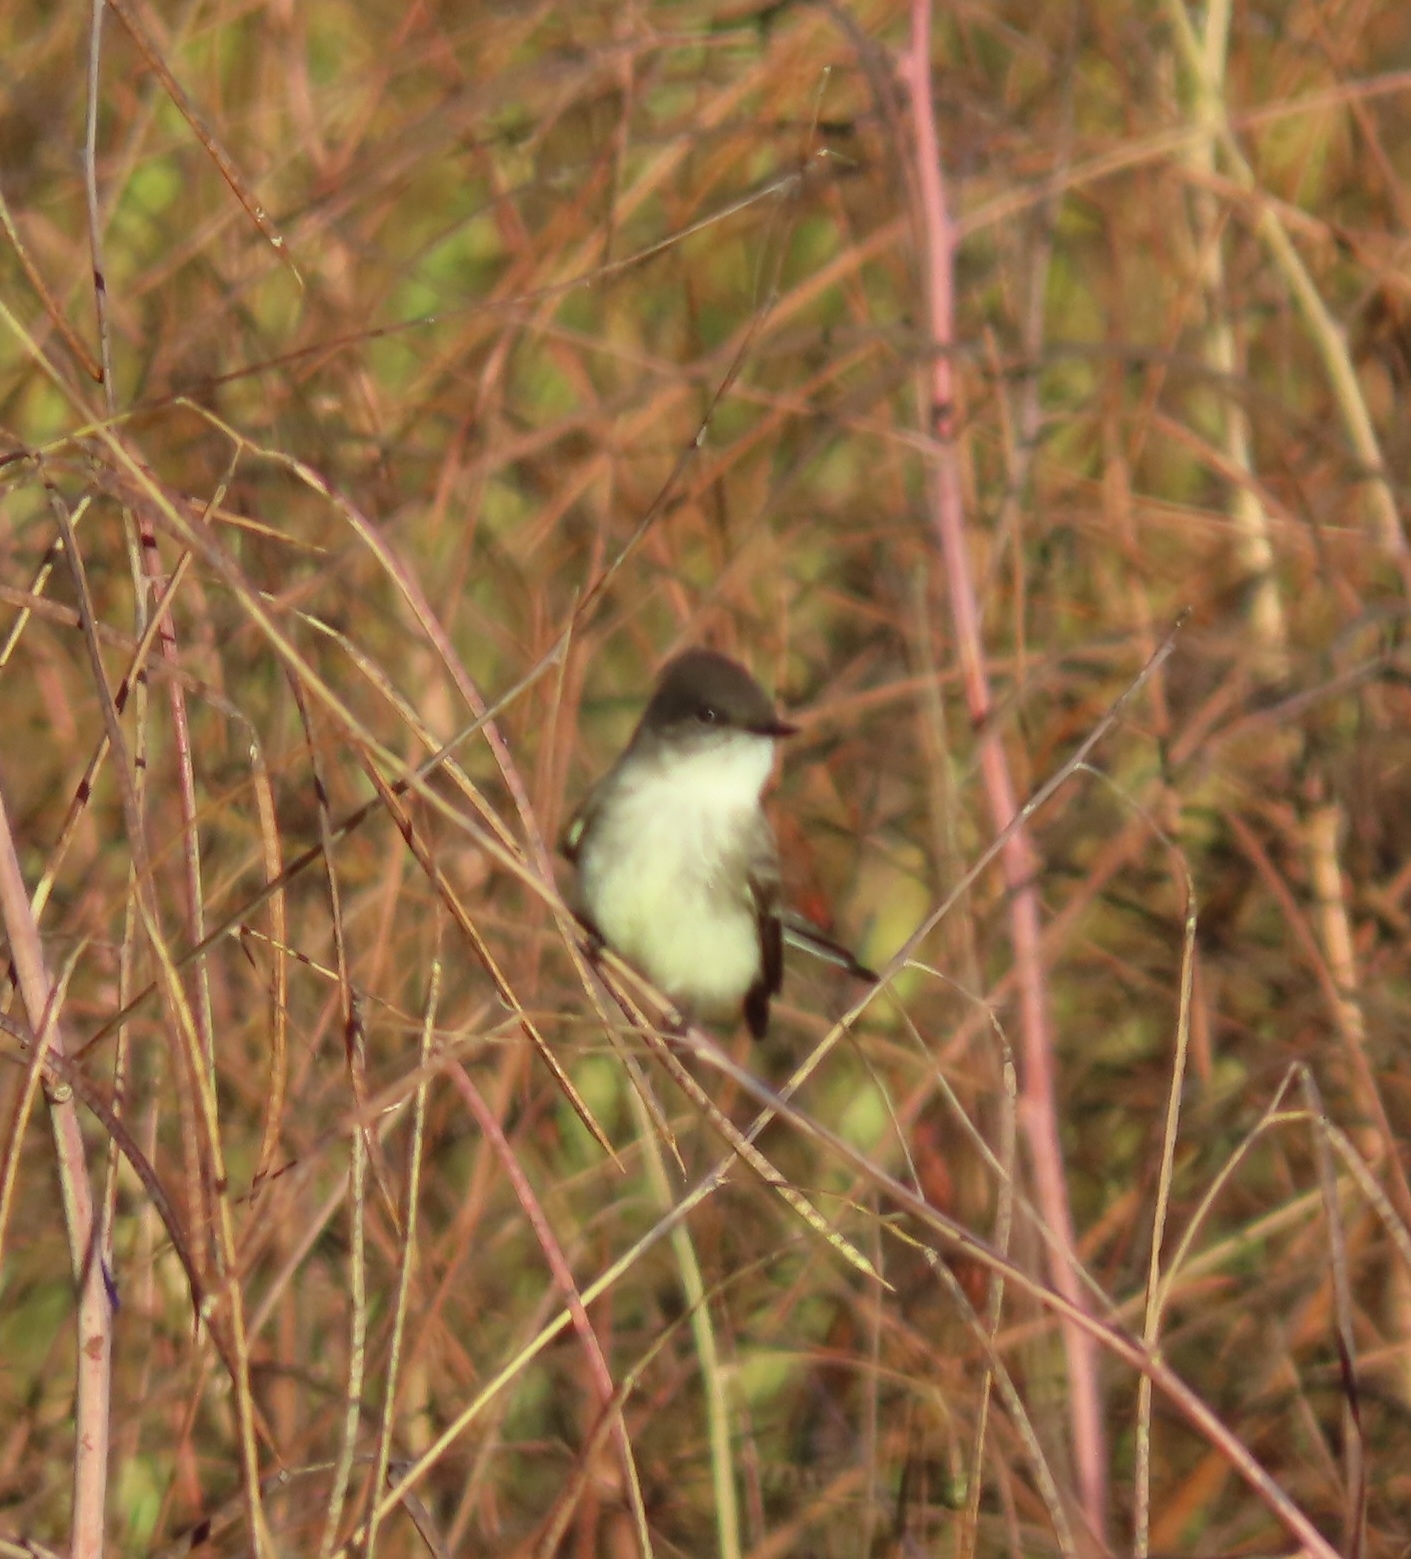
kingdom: Animalia
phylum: Chordata
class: Aves
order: Passeriformes
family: Tyrannidae
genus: Sayornis
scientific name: Sayornis phoebe
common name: Eastern phoebe
